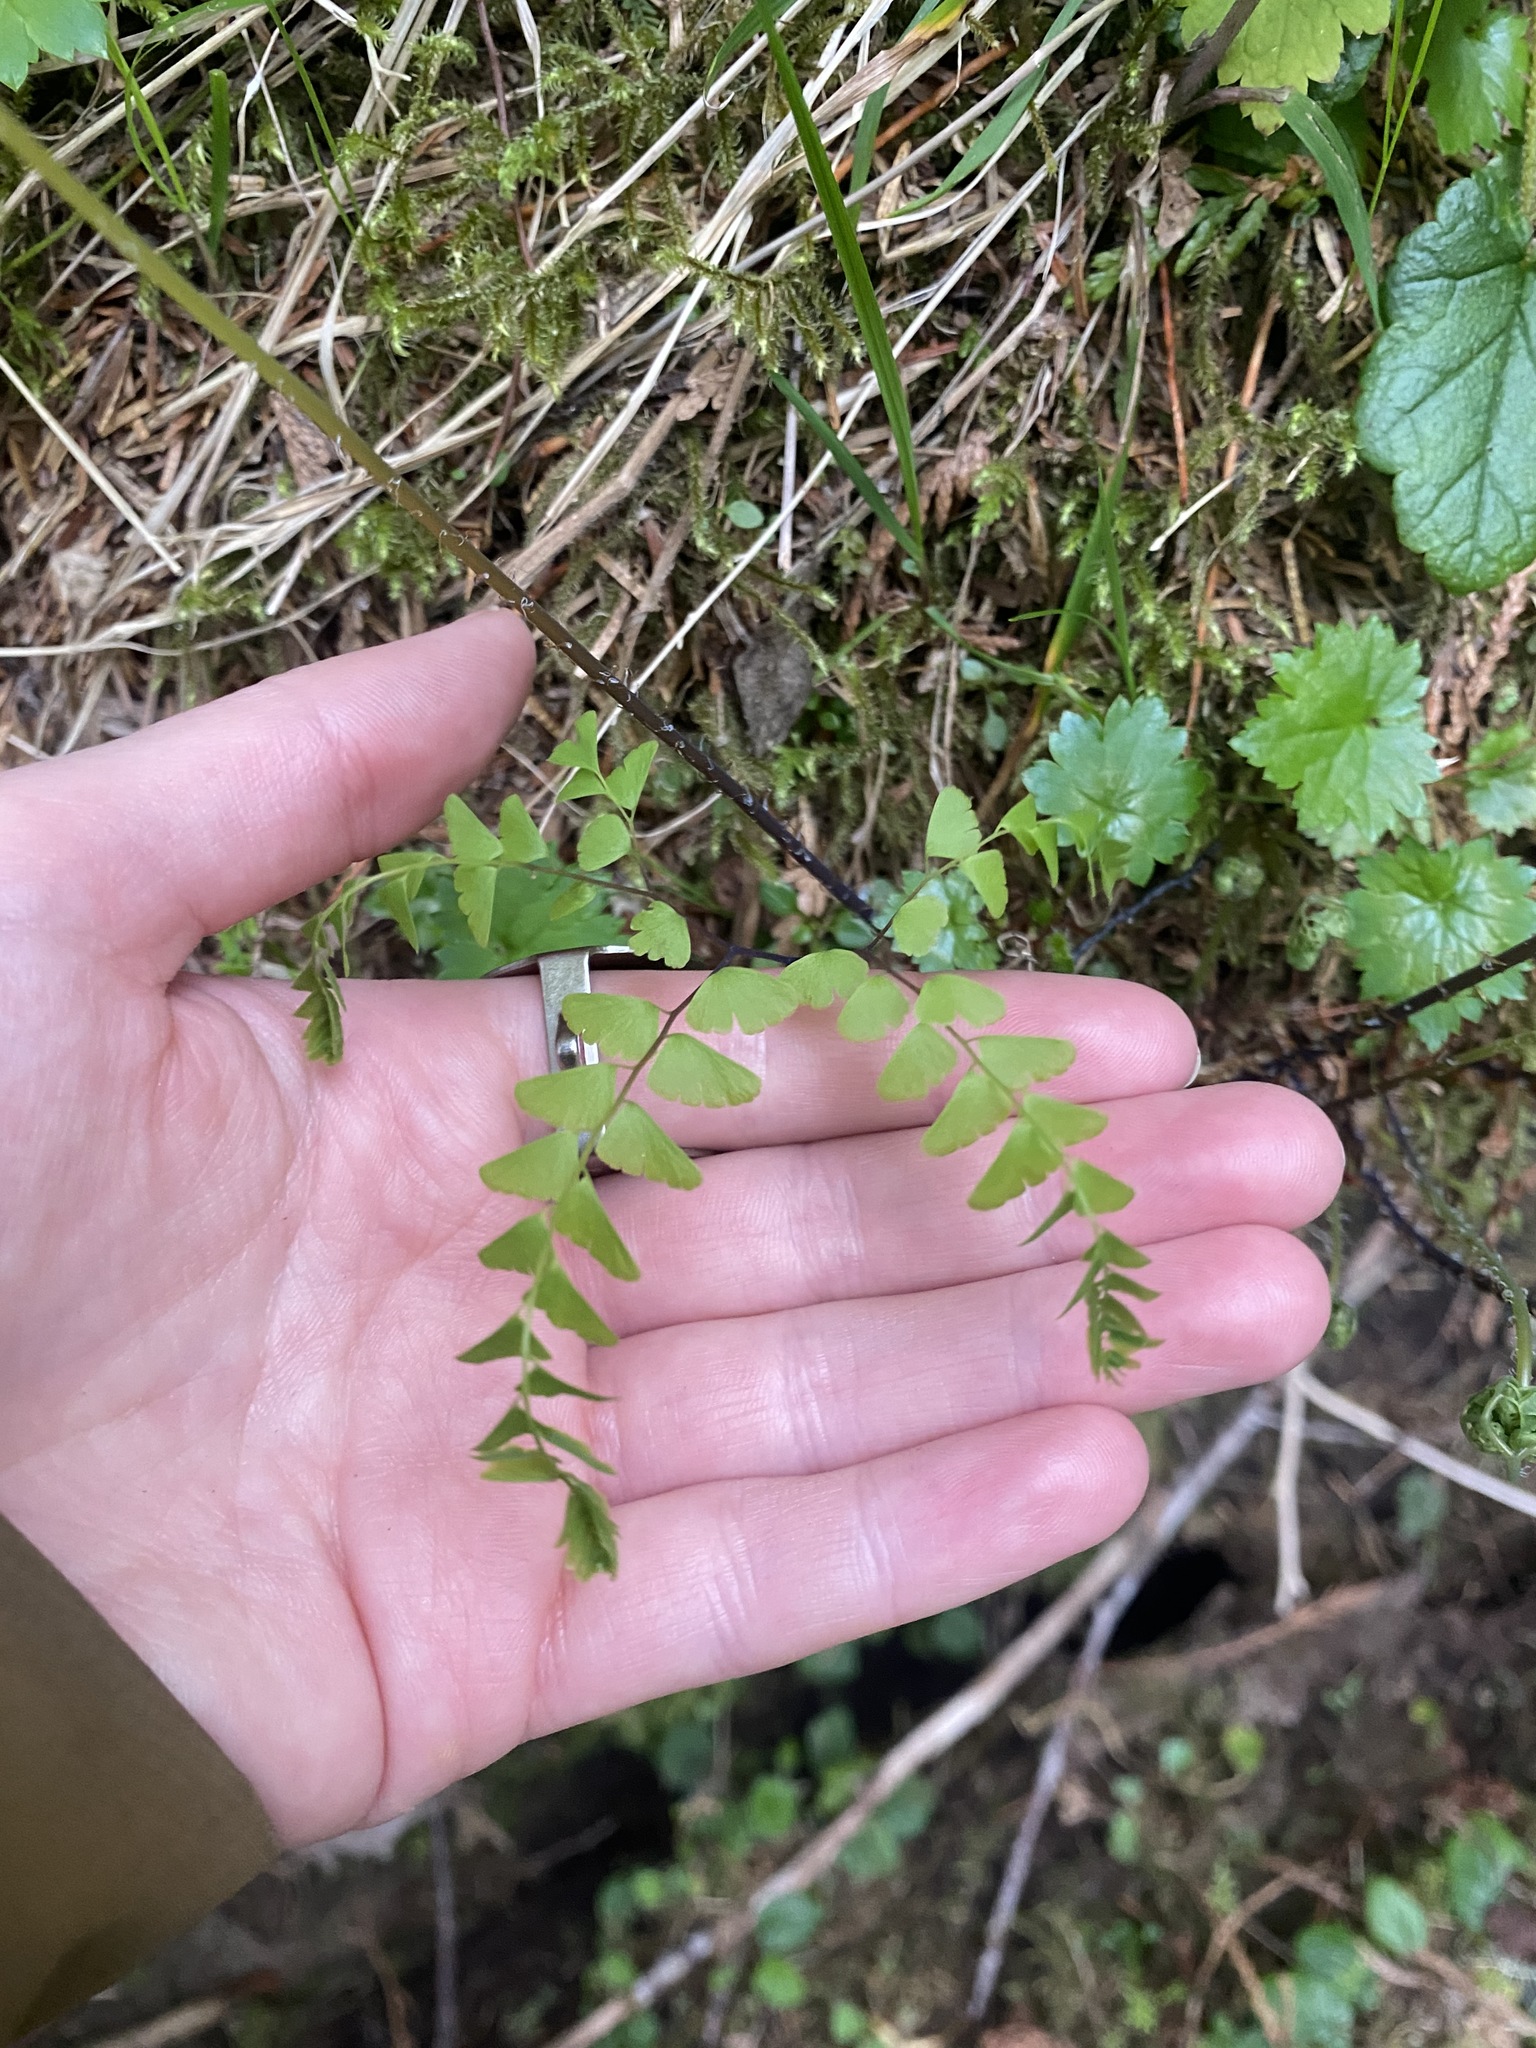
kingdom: Plantae
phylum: Tracheophyta
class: Polypodiopsida
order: Polypodiales
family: Pteridaceae
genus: Adiantum
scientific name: Adiantum aleuticum
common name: Aleutian maidenhair fern
